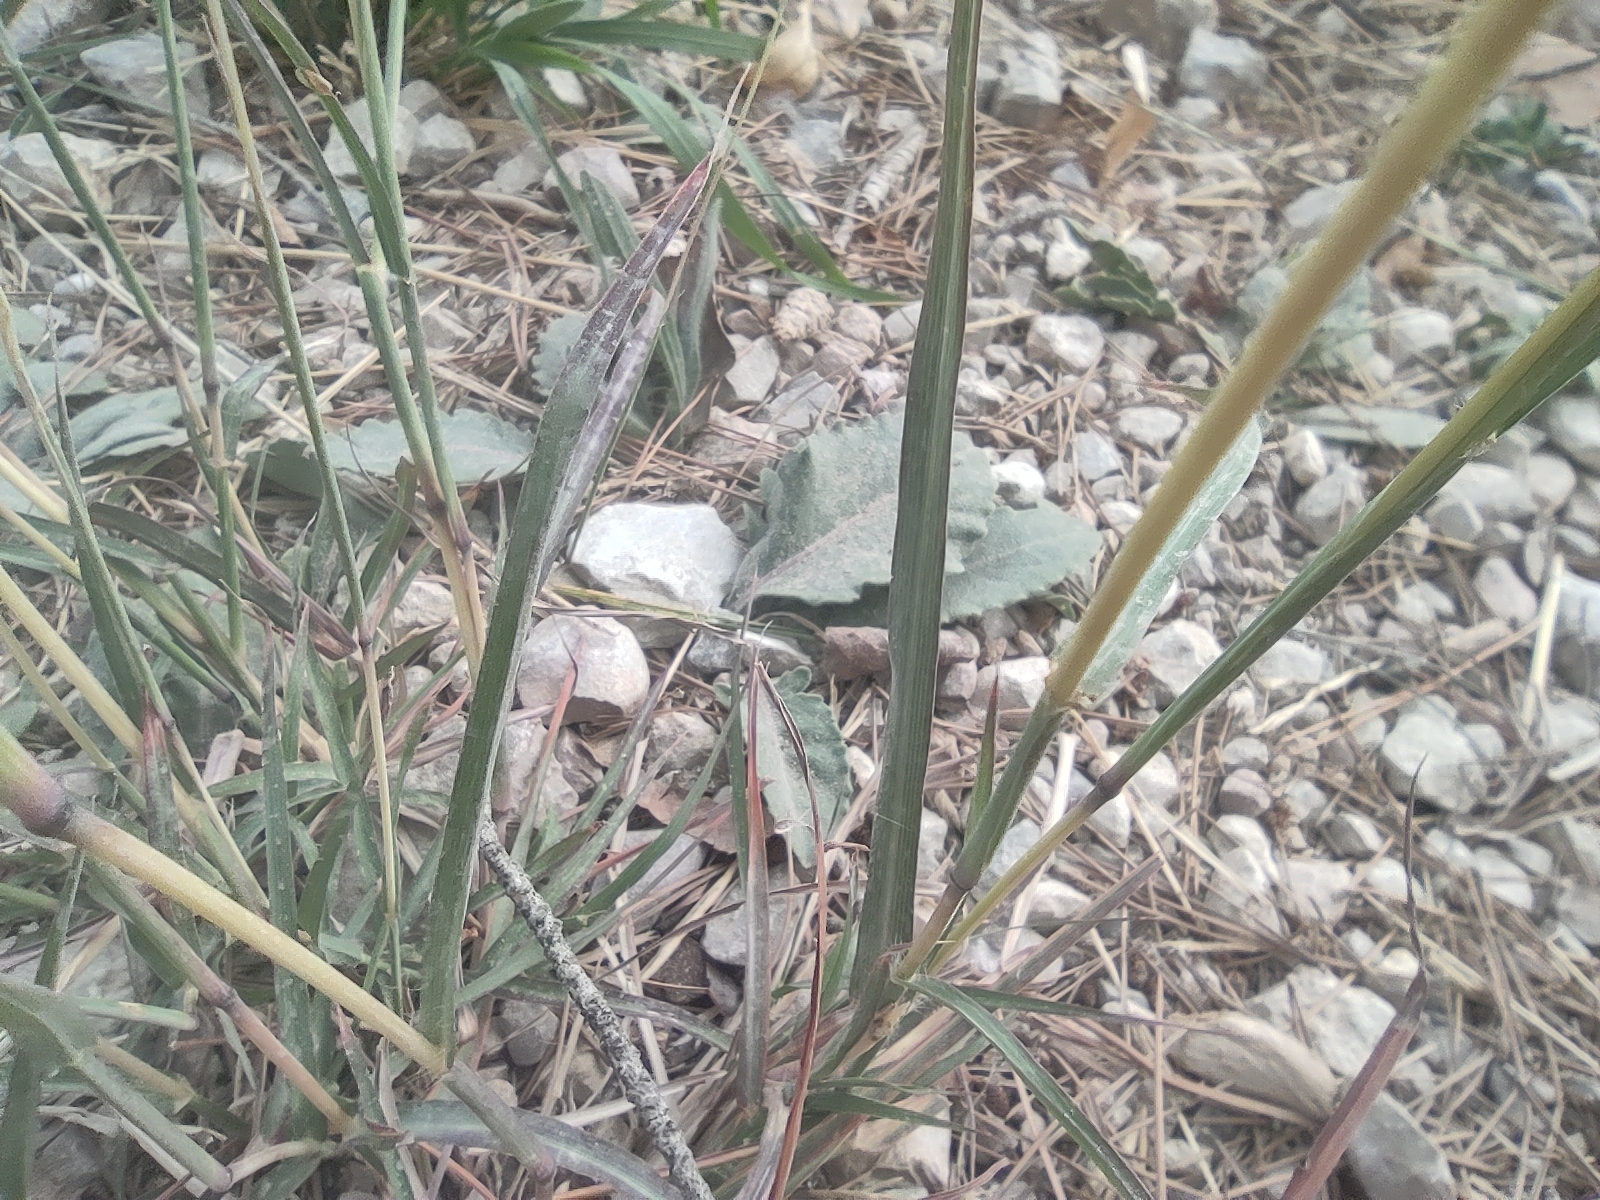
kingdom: Plantae
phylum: Tracheophyta
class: Liliopsida
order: Poales
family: Poaceae
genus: Bothriochloa
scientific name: Bothriochloa ischaemum
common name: Yellow bluestem
